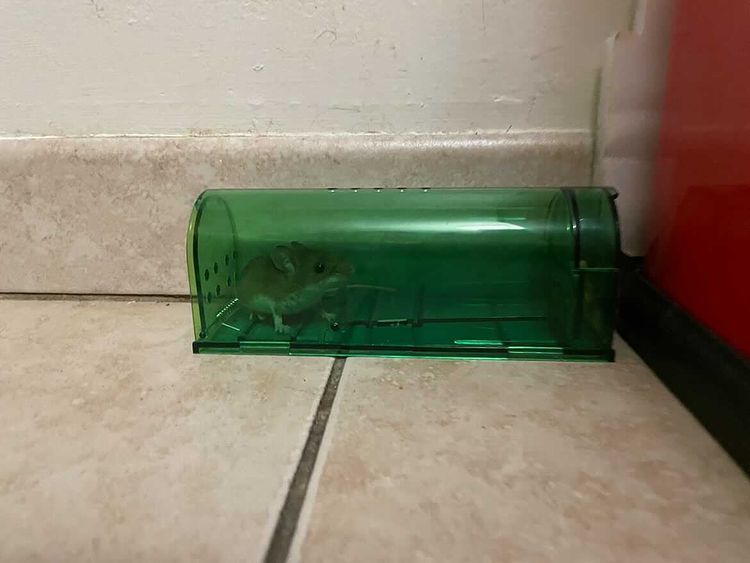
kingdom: Animalia
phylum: Chordata
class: Mammalia
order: Rodentia
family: Cricetidae
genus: Peromyscus
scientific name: Peromyscus leucopus
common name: White-footed deermouse
